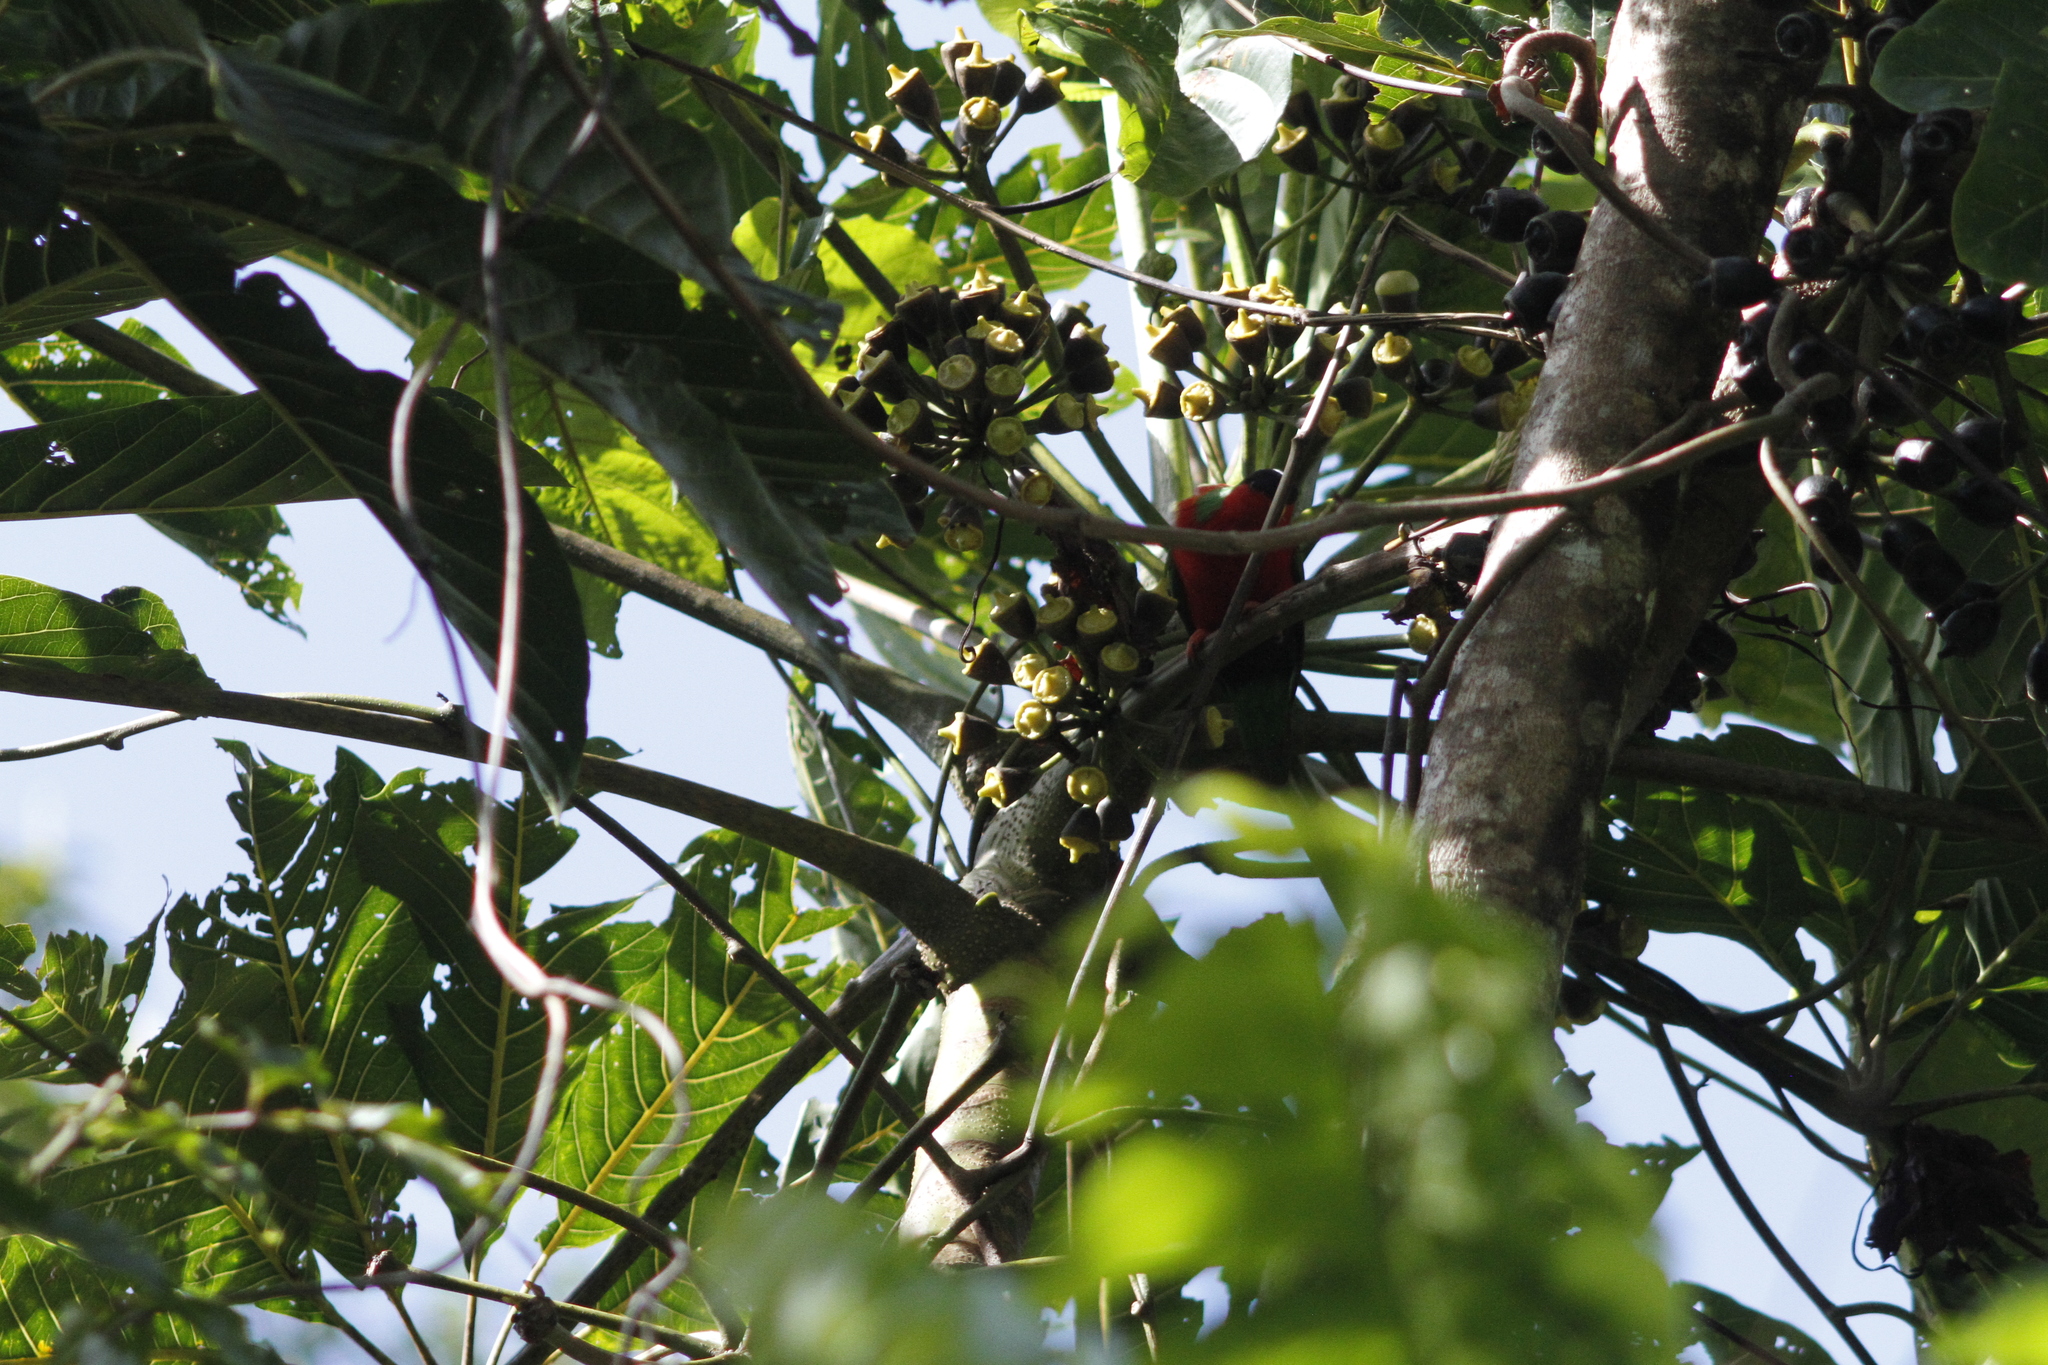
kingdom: Animalia
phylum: Chordata
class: Aves
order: Psittaciformes
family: Psittacidae
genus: Phigys
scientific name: Phigys solitarius
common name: Collared lory
